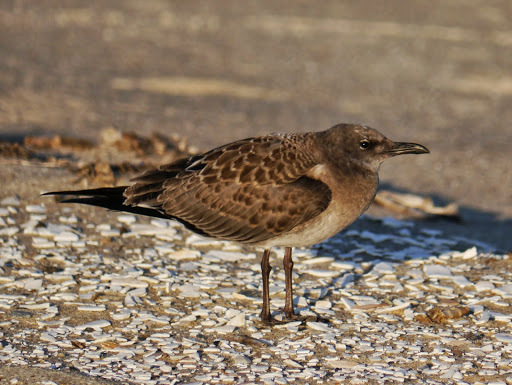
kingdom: Animalia
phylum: Chordata
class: Aves
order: Charadriiformes
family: Laridae
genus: Leucophaeus
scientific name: Leucophaeus atricilla
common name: Laughing gull
